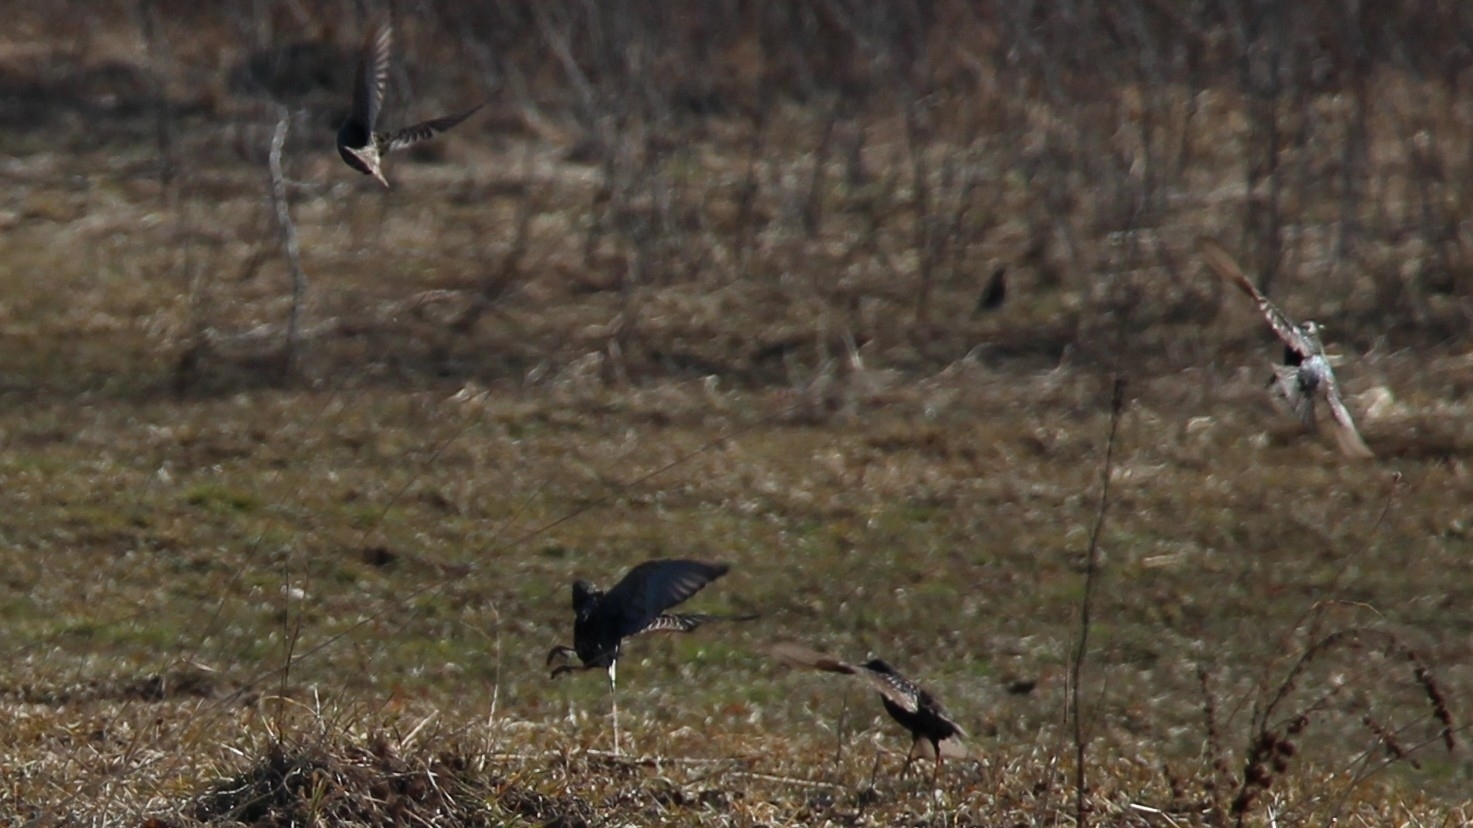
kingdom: Animalia
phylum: Chordata
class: Aves
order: Passeriformes
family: Sturnidae
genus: Sturnus
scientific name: Sturnus vulgaris
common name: Common starling
